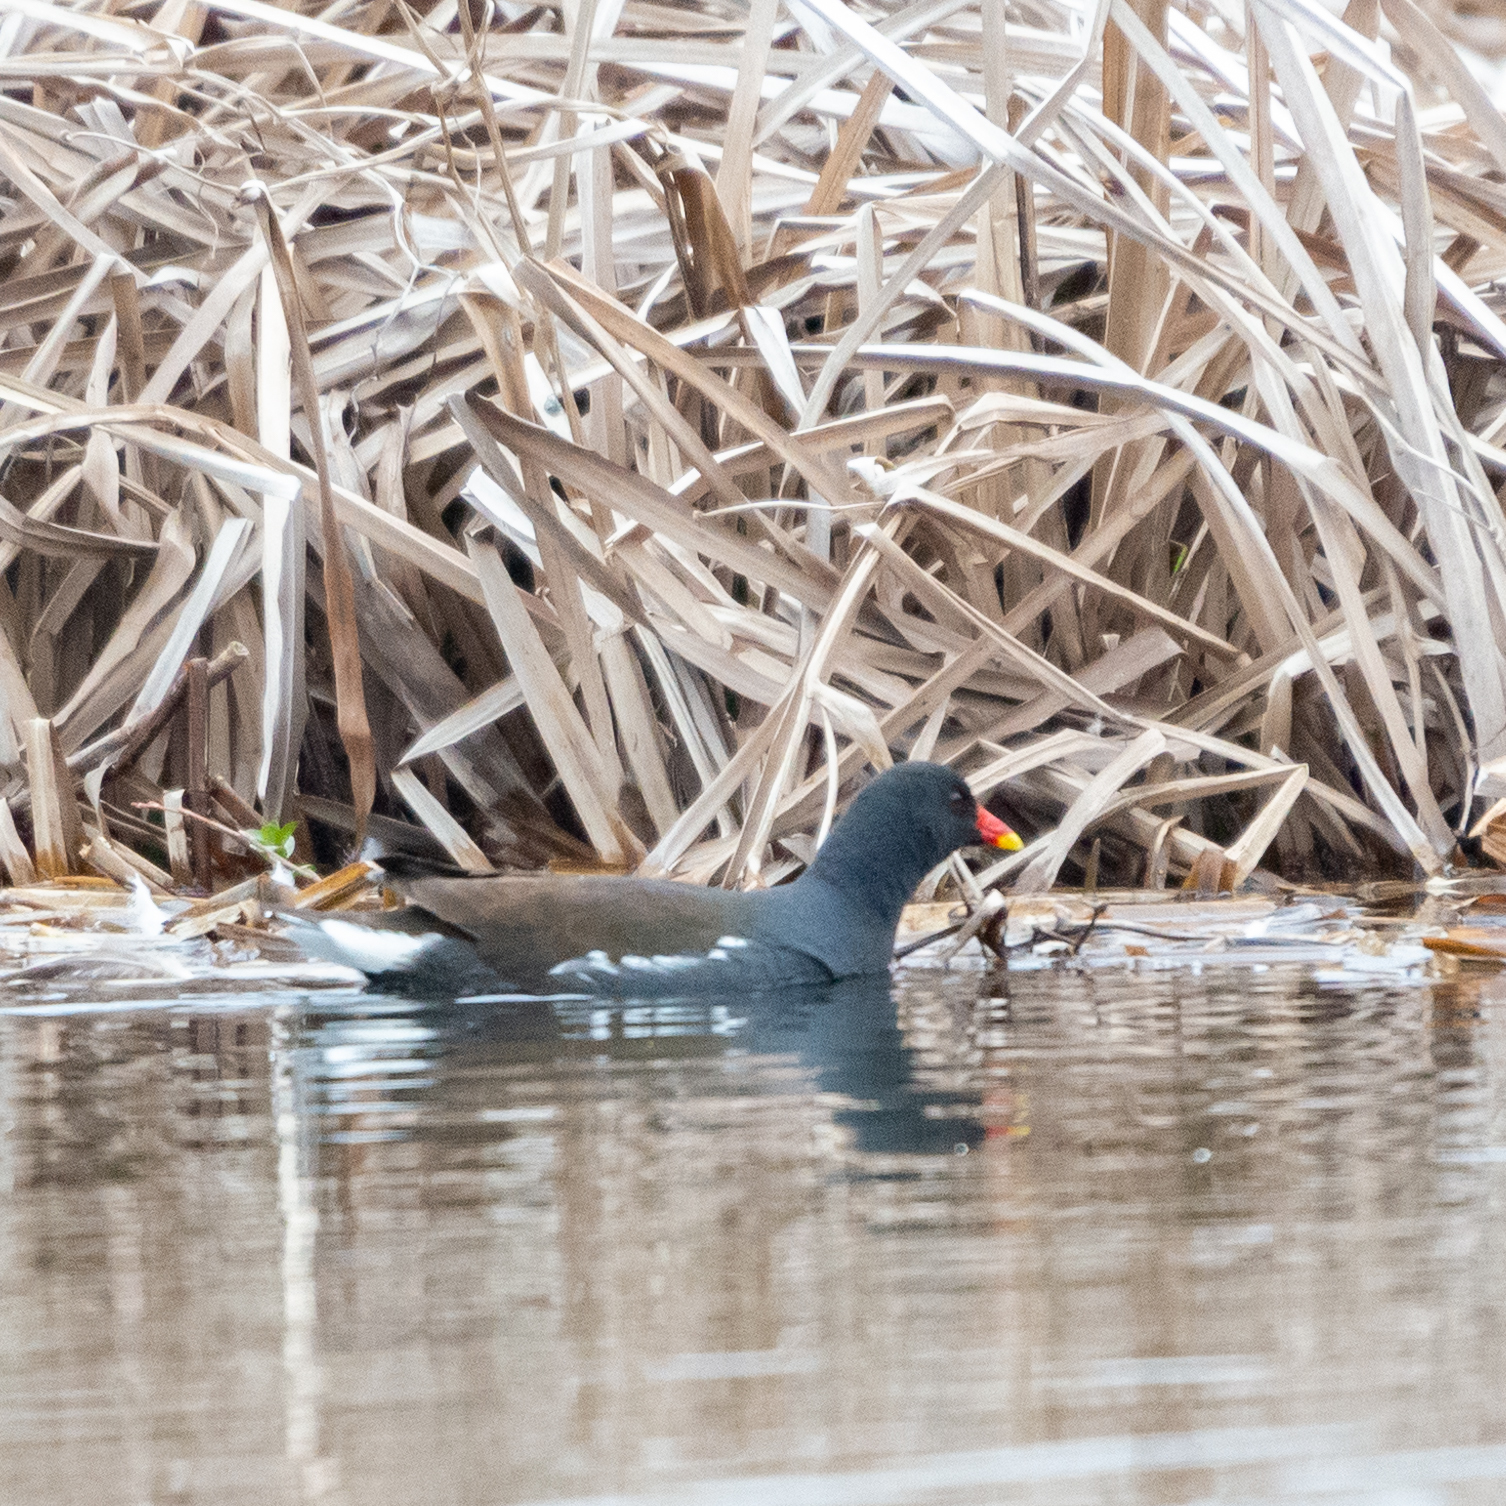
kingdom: Animalia
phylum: Chordata
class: Aves
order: Gruiformes
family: Rallidae
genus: Gallinula
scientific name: Gallinula chloropus
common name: Common moorhen
